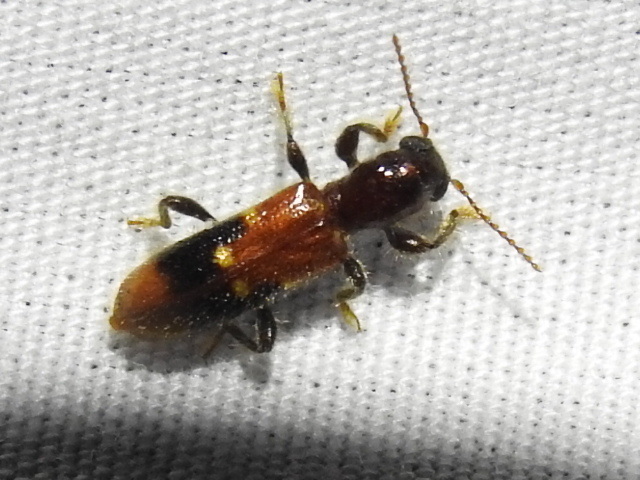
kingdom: Animalia
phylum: Arthropoda
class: Insecta
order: Coleoptera
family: Cleridae
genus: Priocera
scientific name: Priocera castanea
